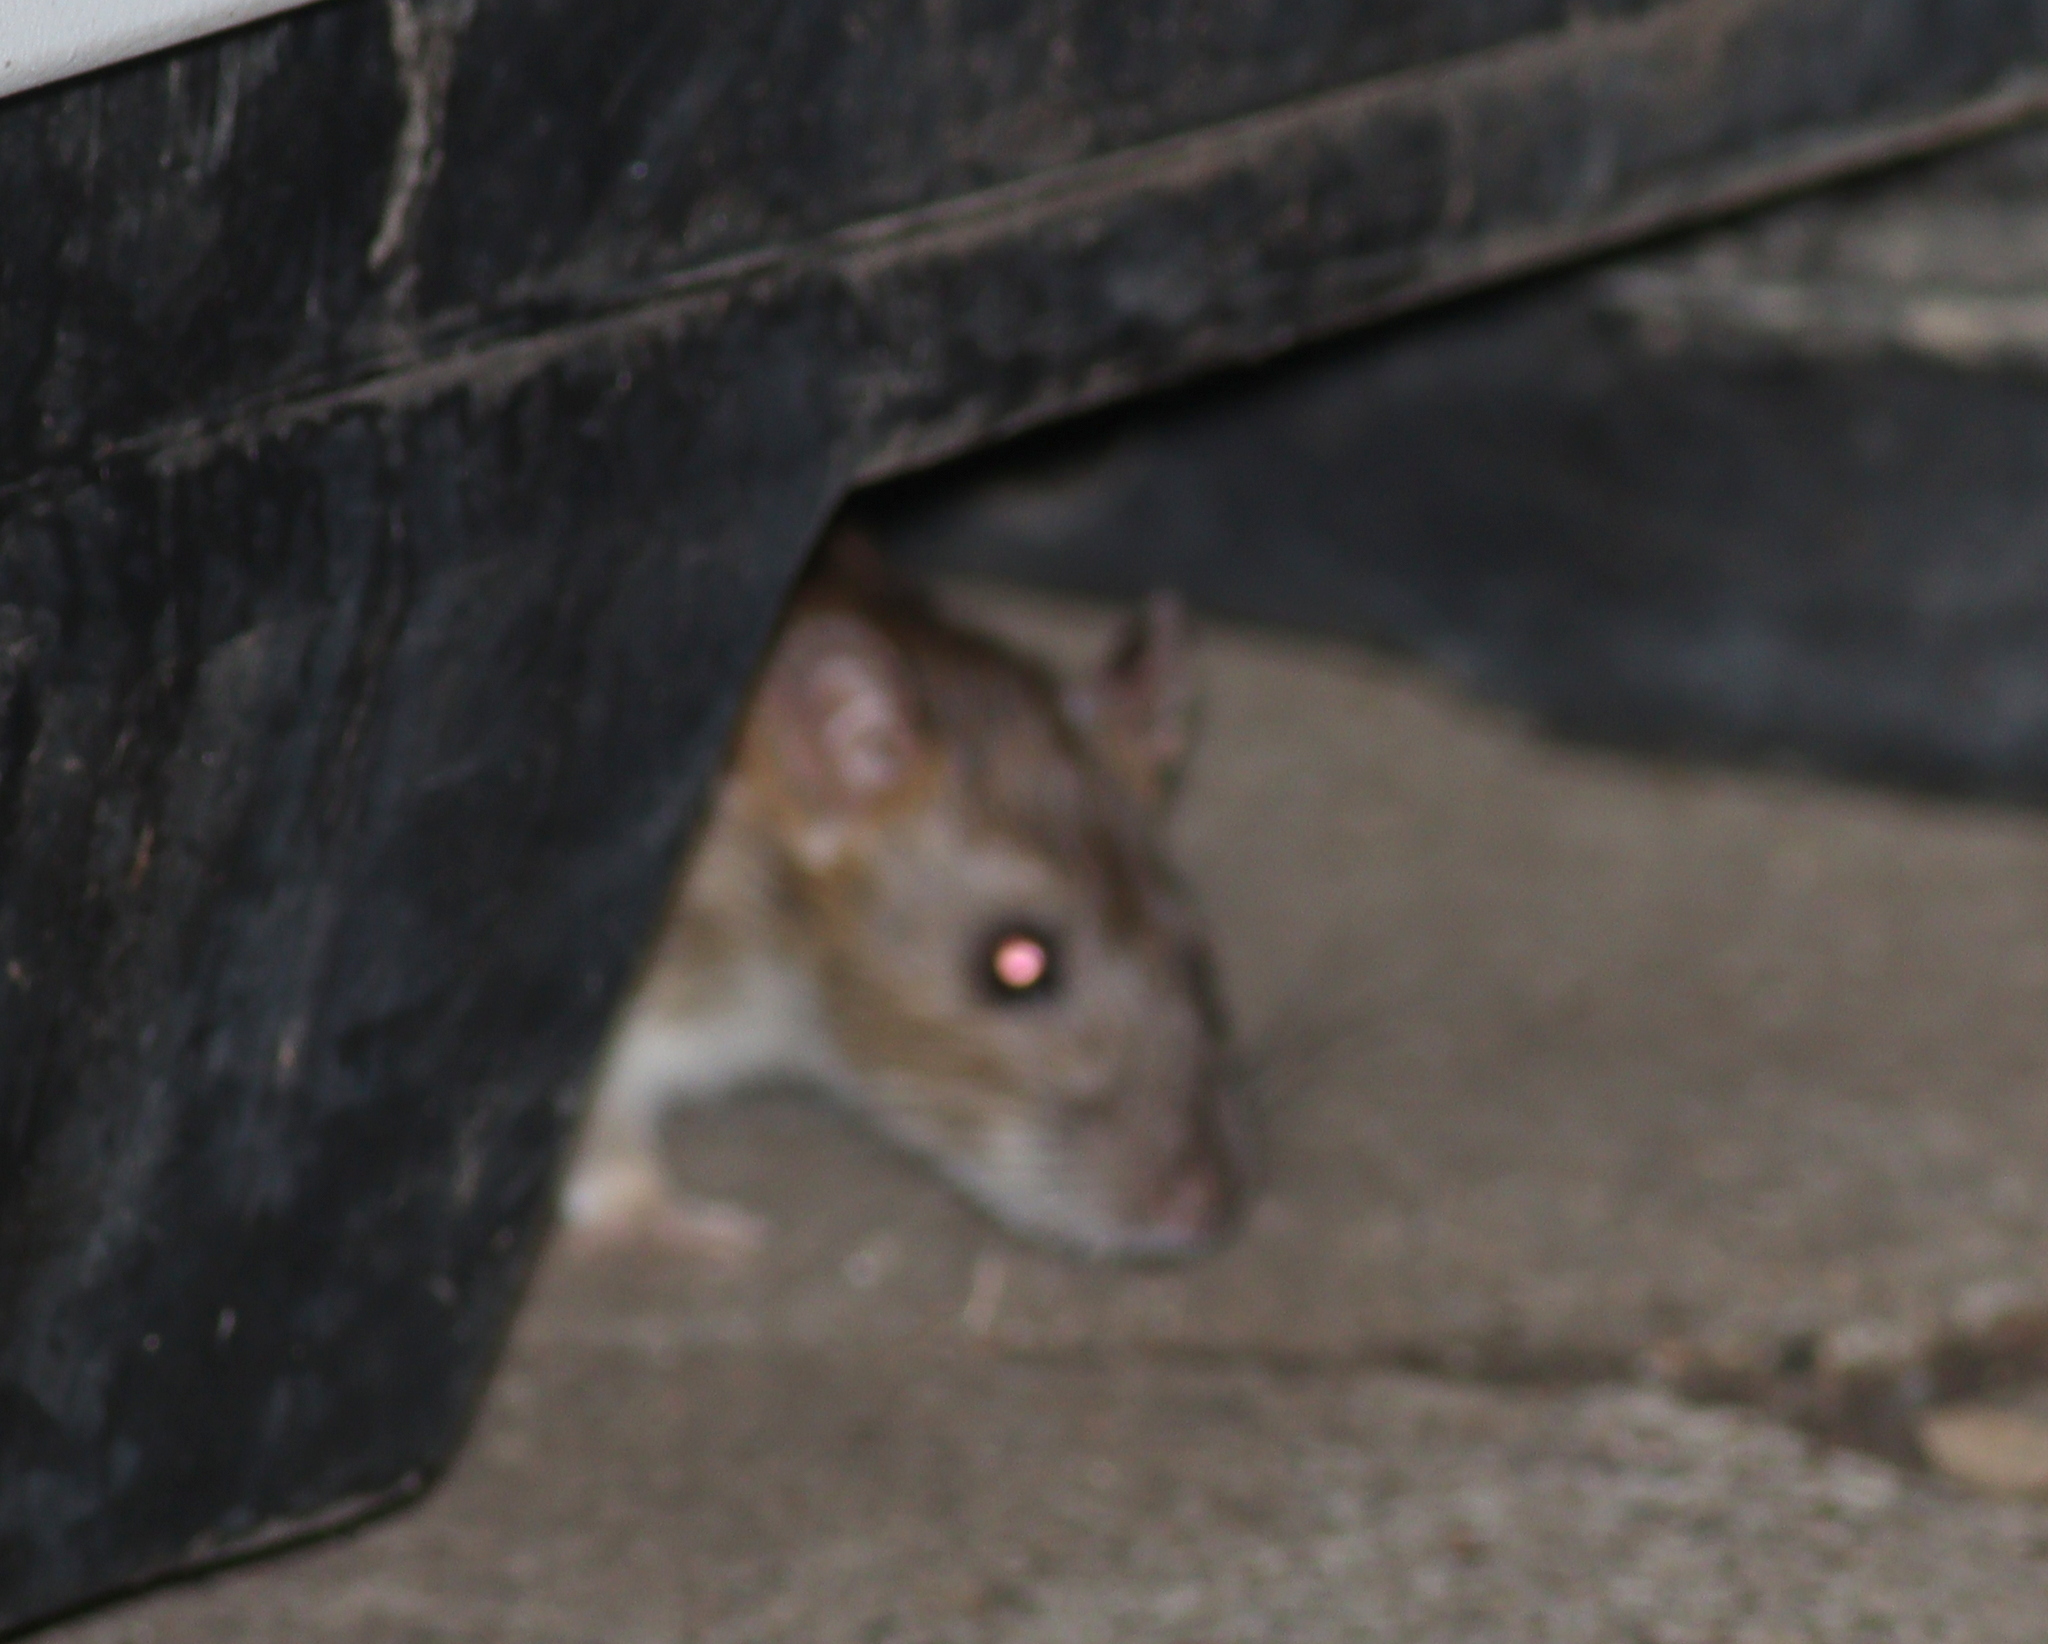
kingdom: Animalia
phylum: Chordata
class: Mammalia
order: Rodentia
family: Muridae
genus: Rattus
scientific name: Rattus norvegicus
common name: Brown rat
